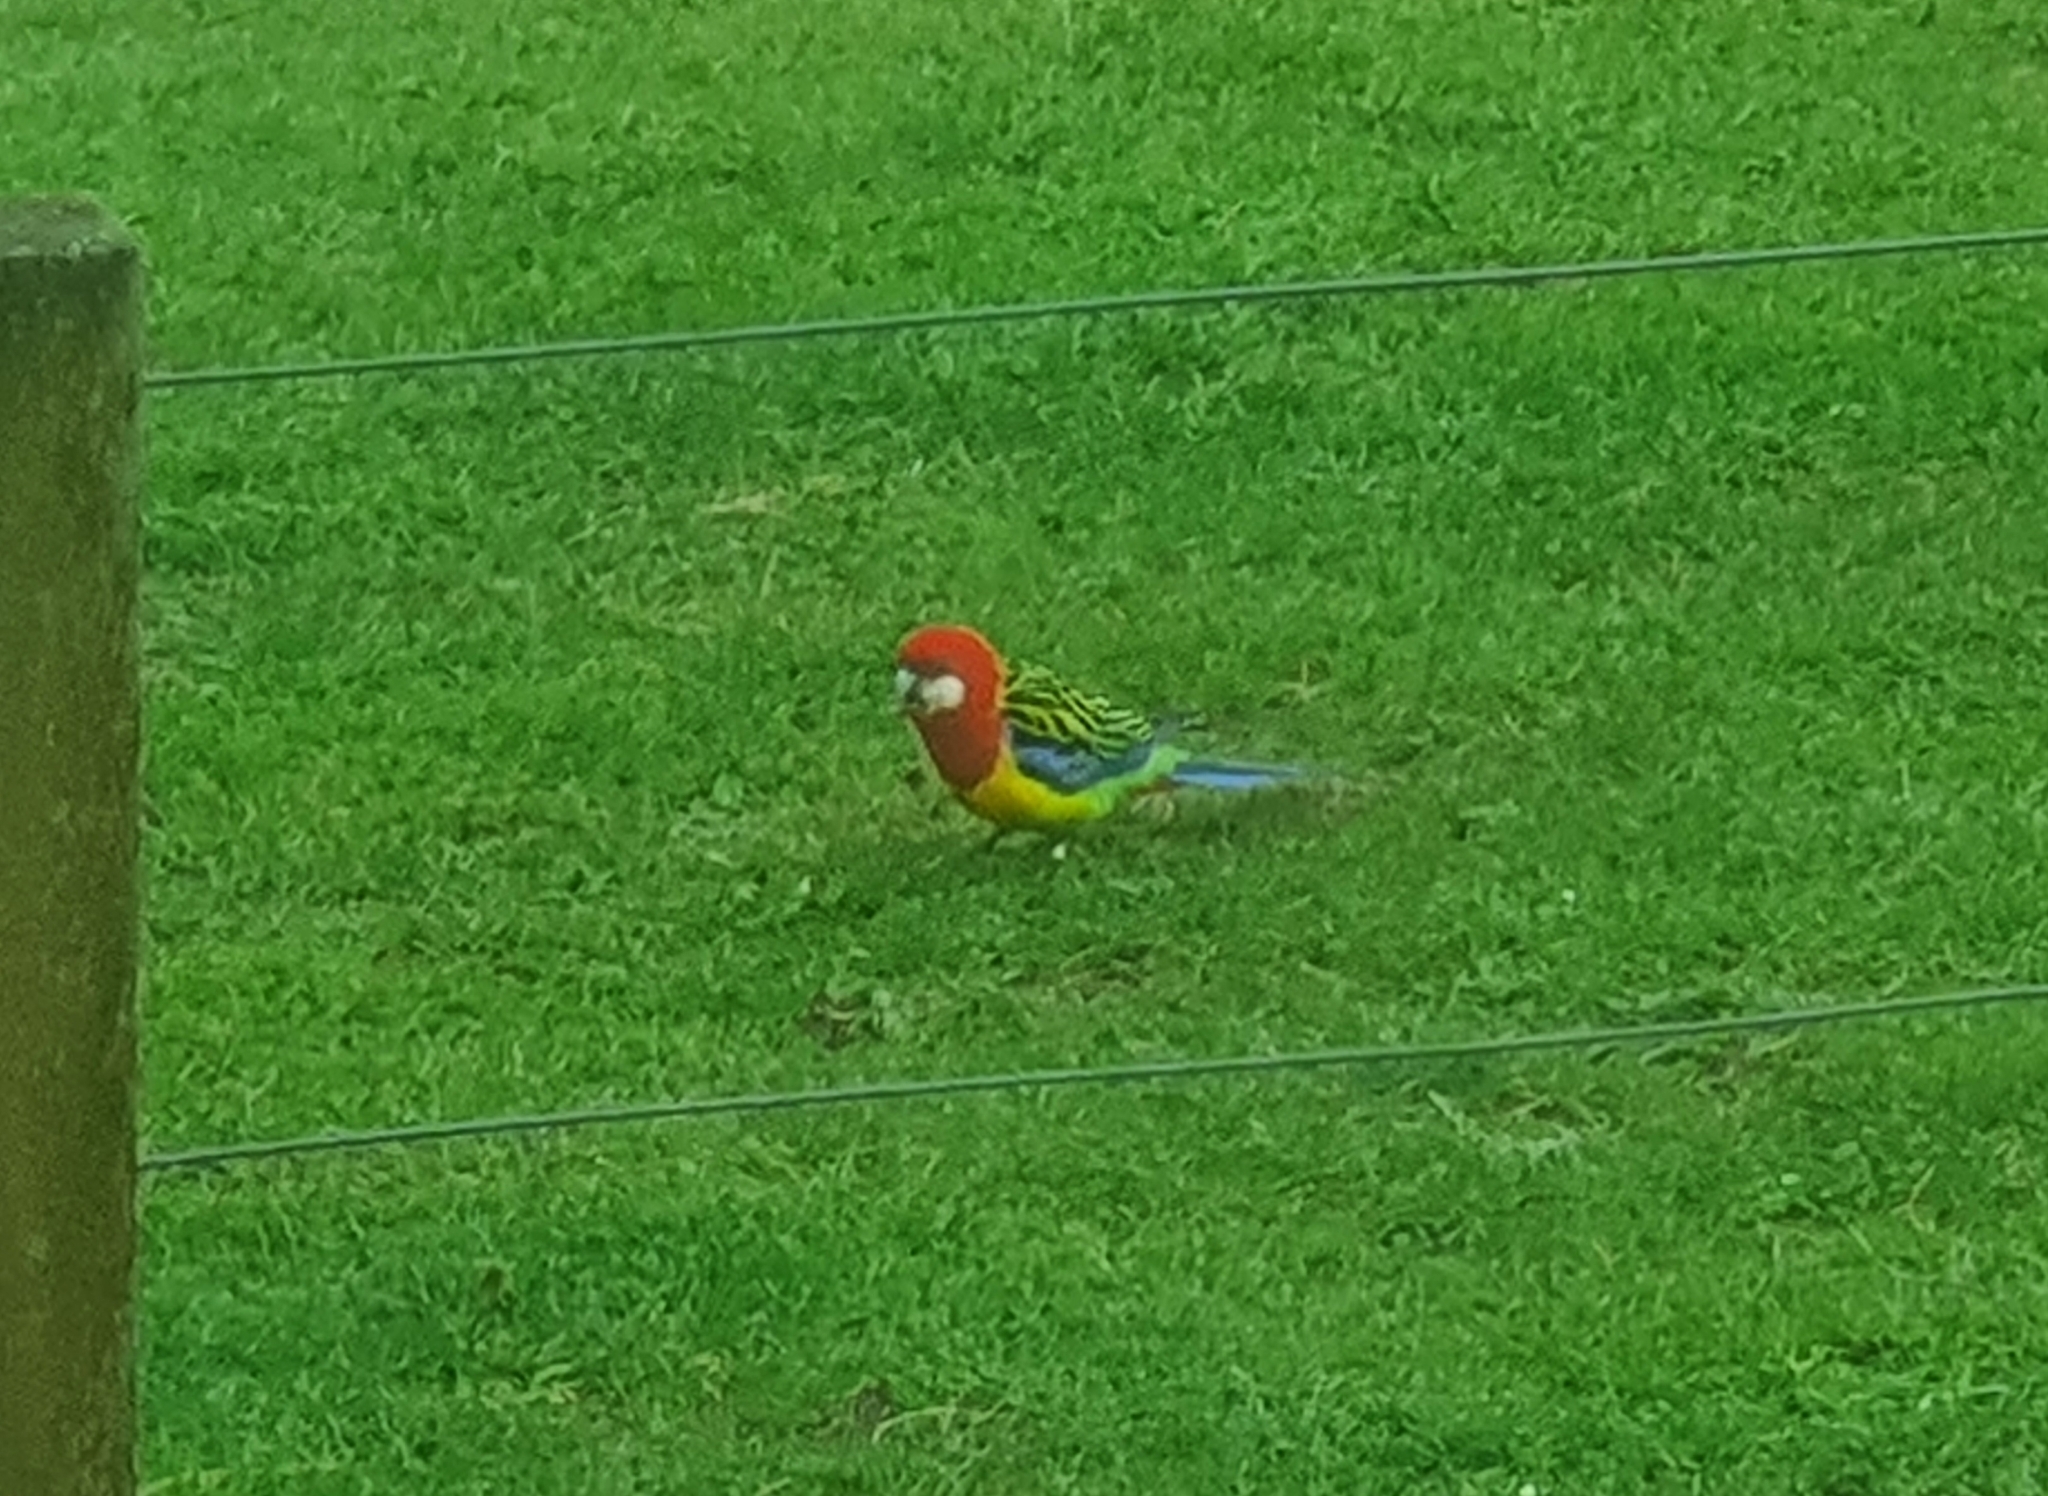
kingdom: Animalia
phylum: Chordata
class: Aves
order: Psittaciformes
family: Psittacidae
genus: Platycercus
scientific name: Platycercus eximius
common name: Eastern rosella
